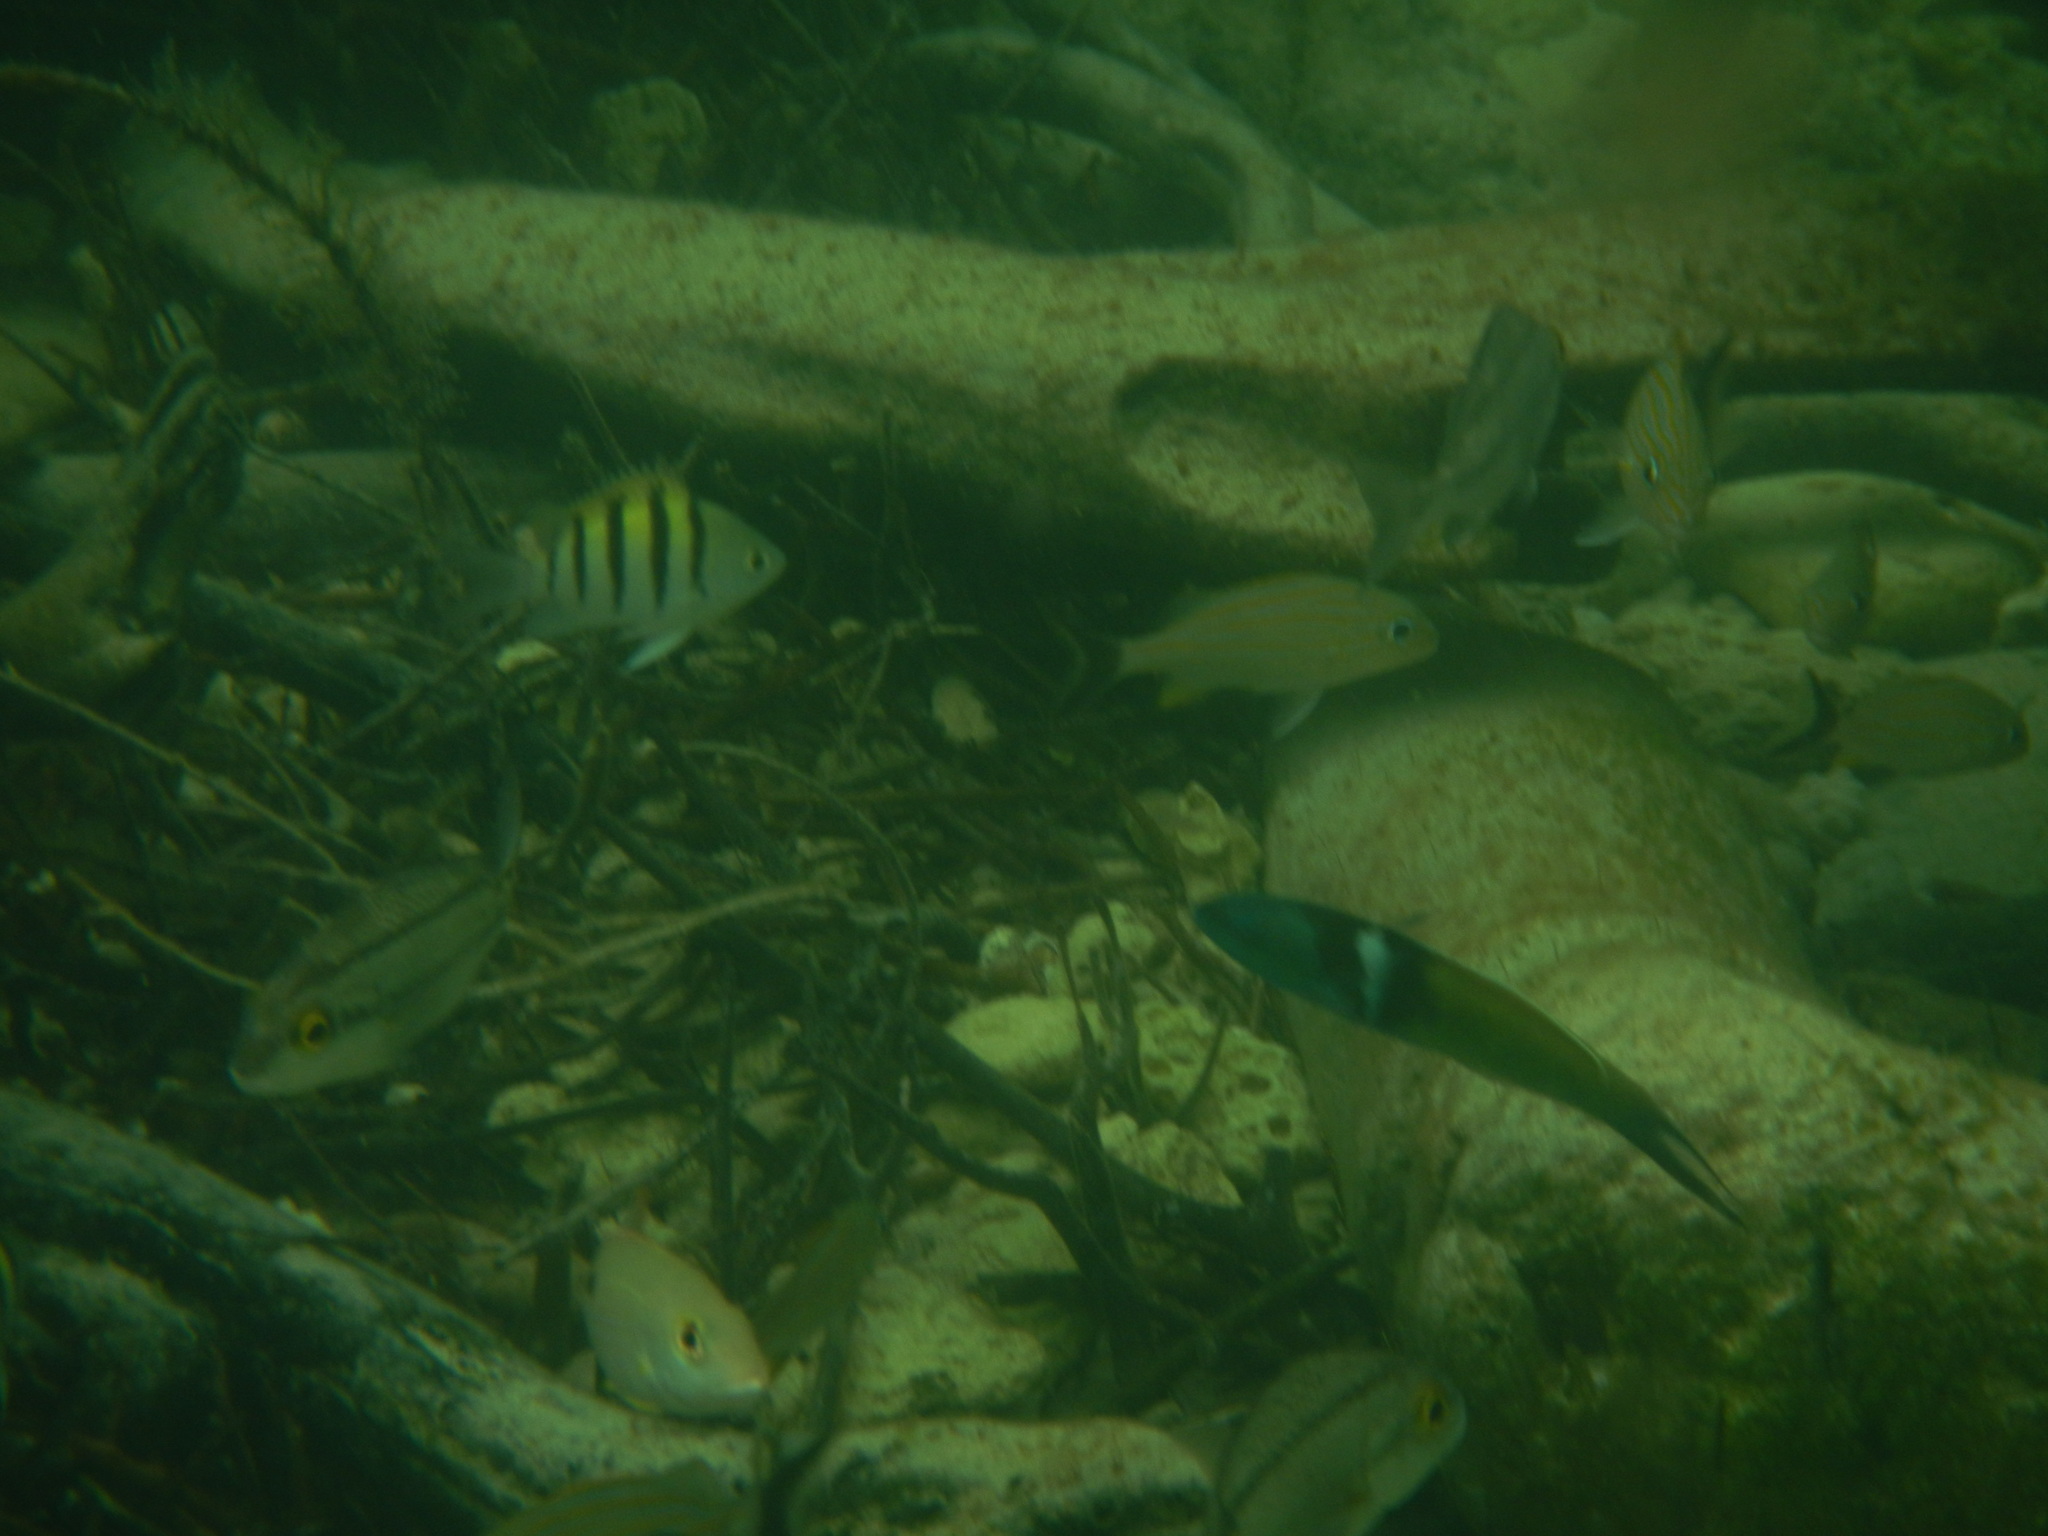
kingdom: Animalia
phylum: Chordata
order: Perciformes
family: Labridae
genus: Thalassoma
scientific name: Thalassoma bifasciatum
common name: Bluehead wrasse
